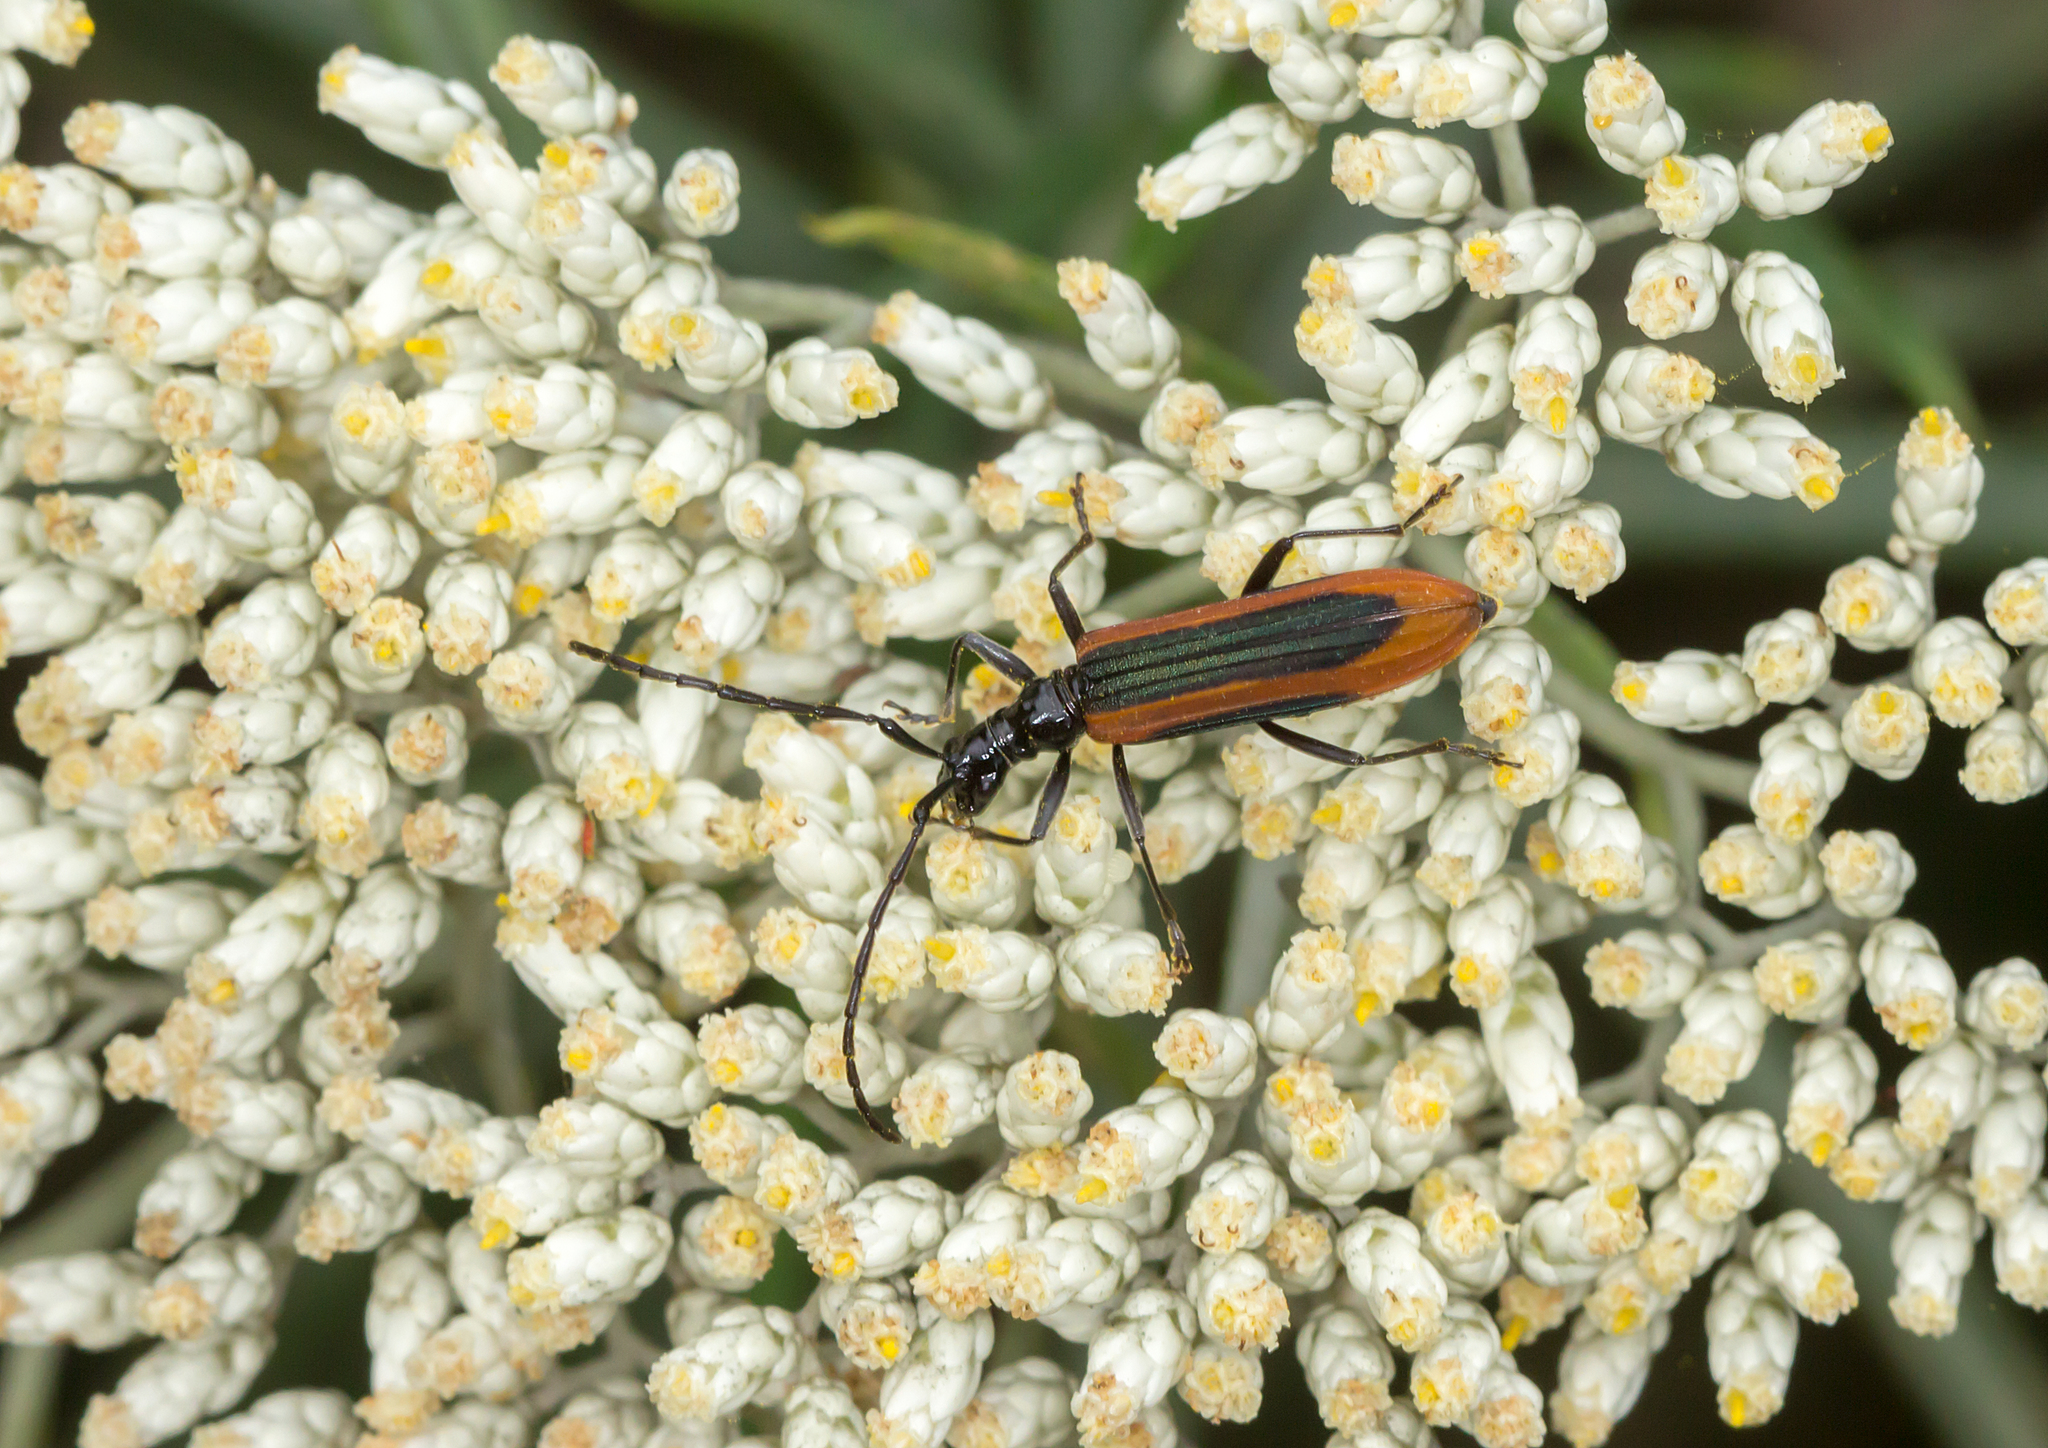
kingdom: Animalia
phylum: Arthropoda
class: Insecta
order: Coleoptera
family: Cerambycidae
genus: Stenoderus
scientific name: Stenoderus suturalis
